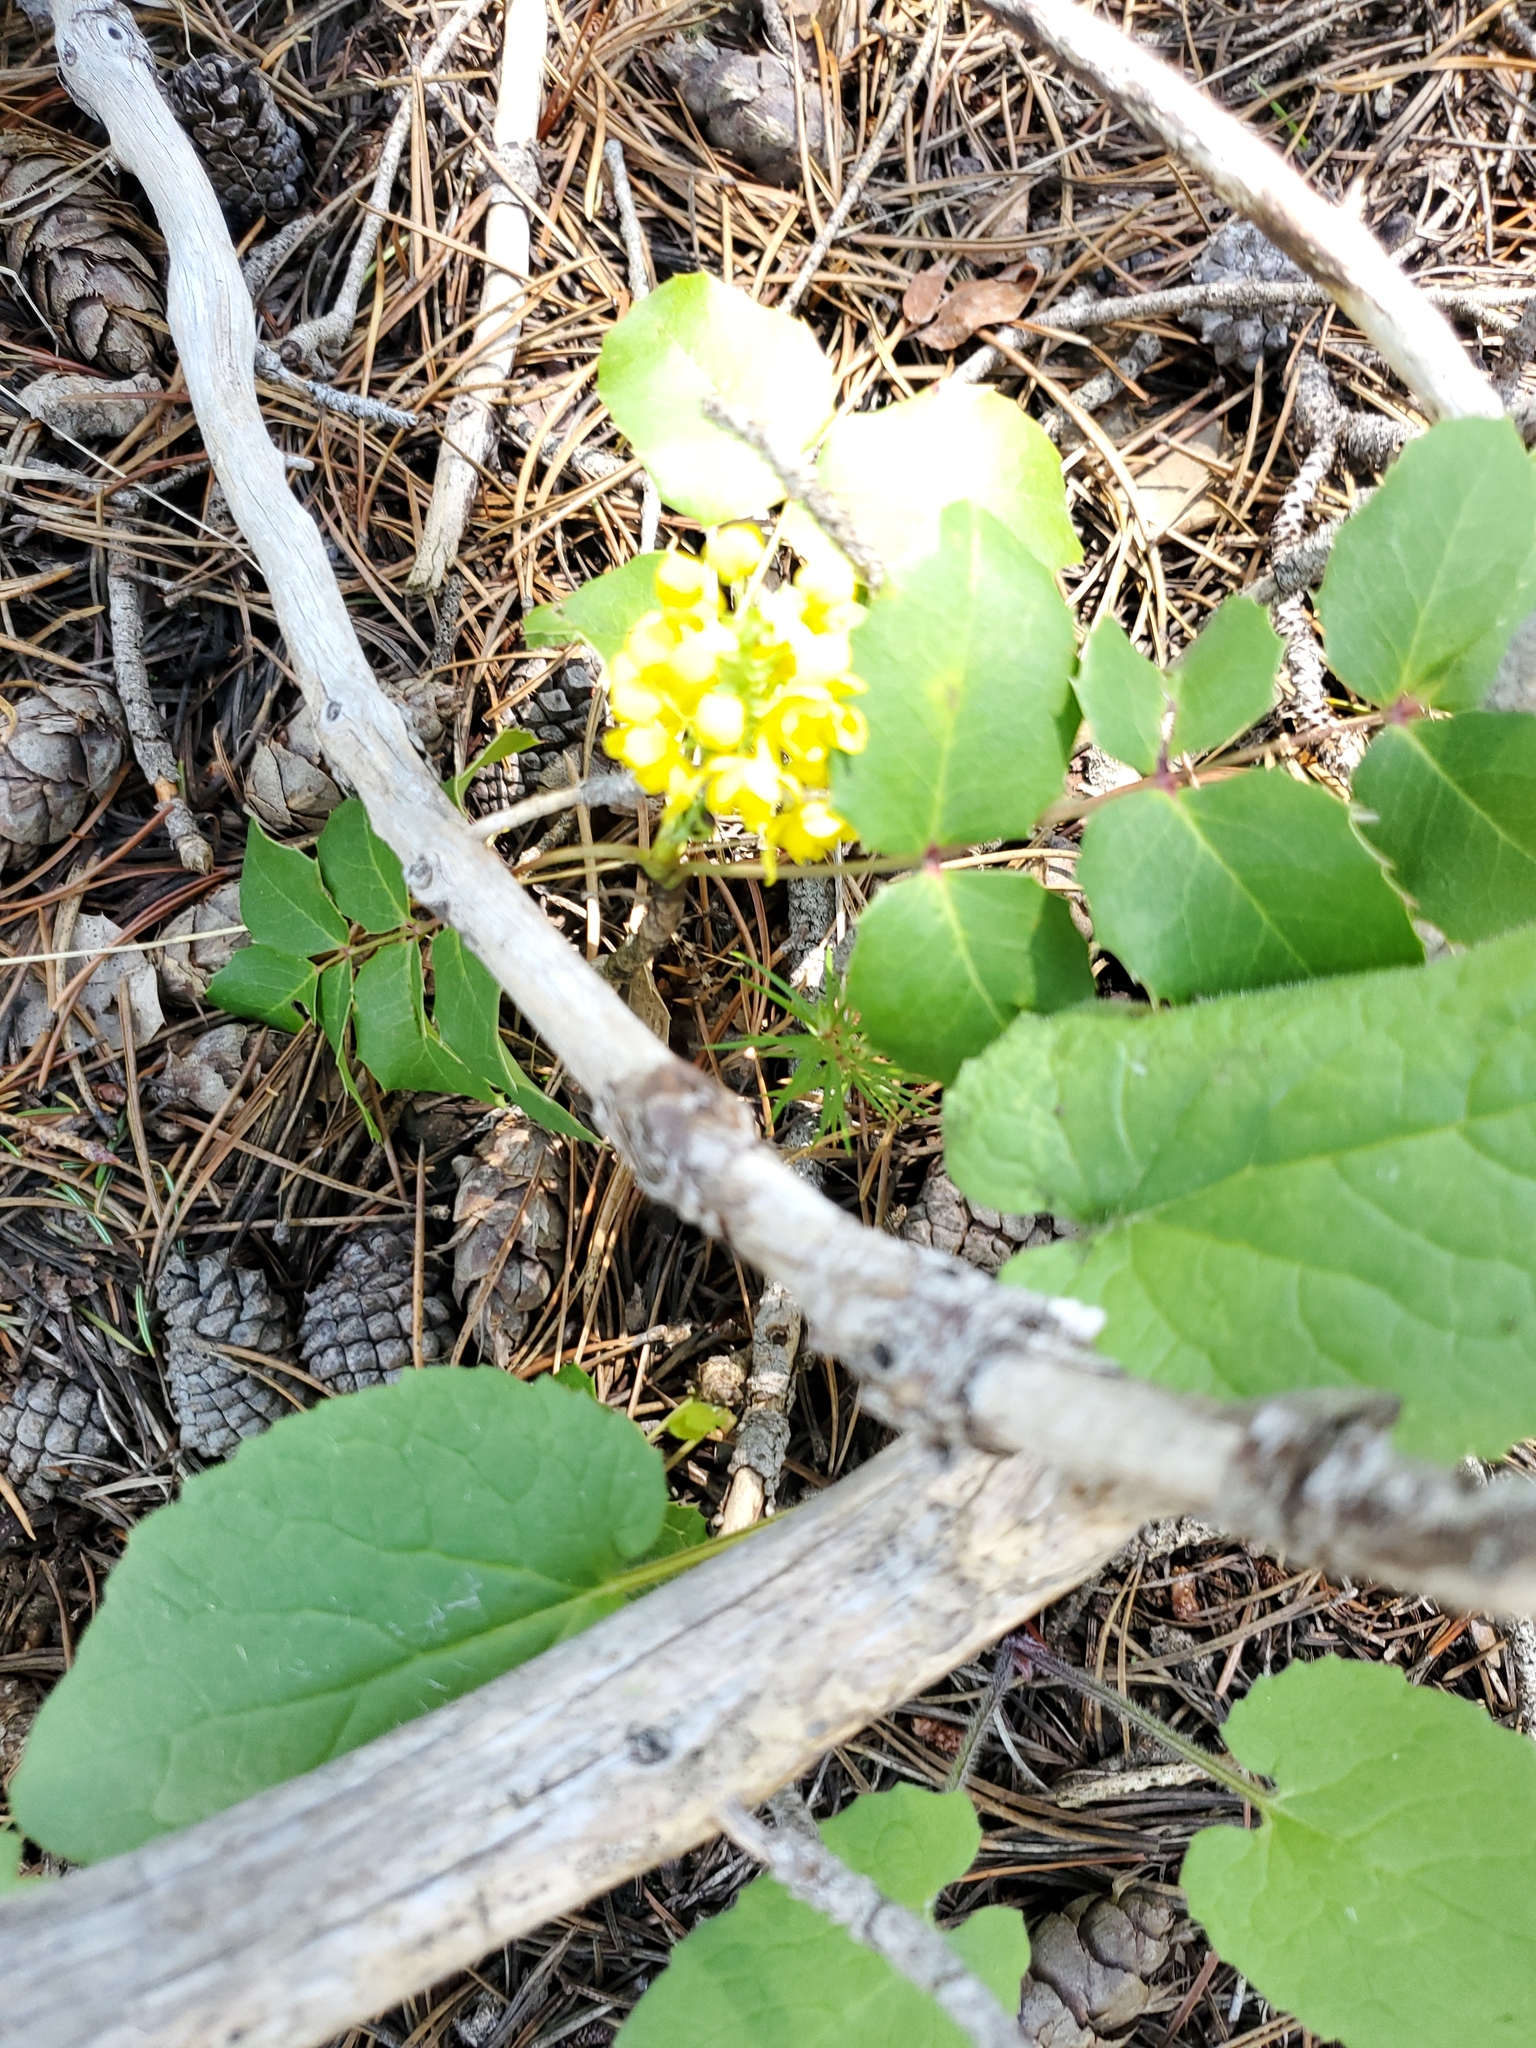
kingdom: Plantae
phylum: Tracheophyta
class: Magnoliopsida
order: Ranunculales
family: Berberidaceae
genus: Mahonia
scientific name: Mahonia repens
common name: Creeping oregon-grape
